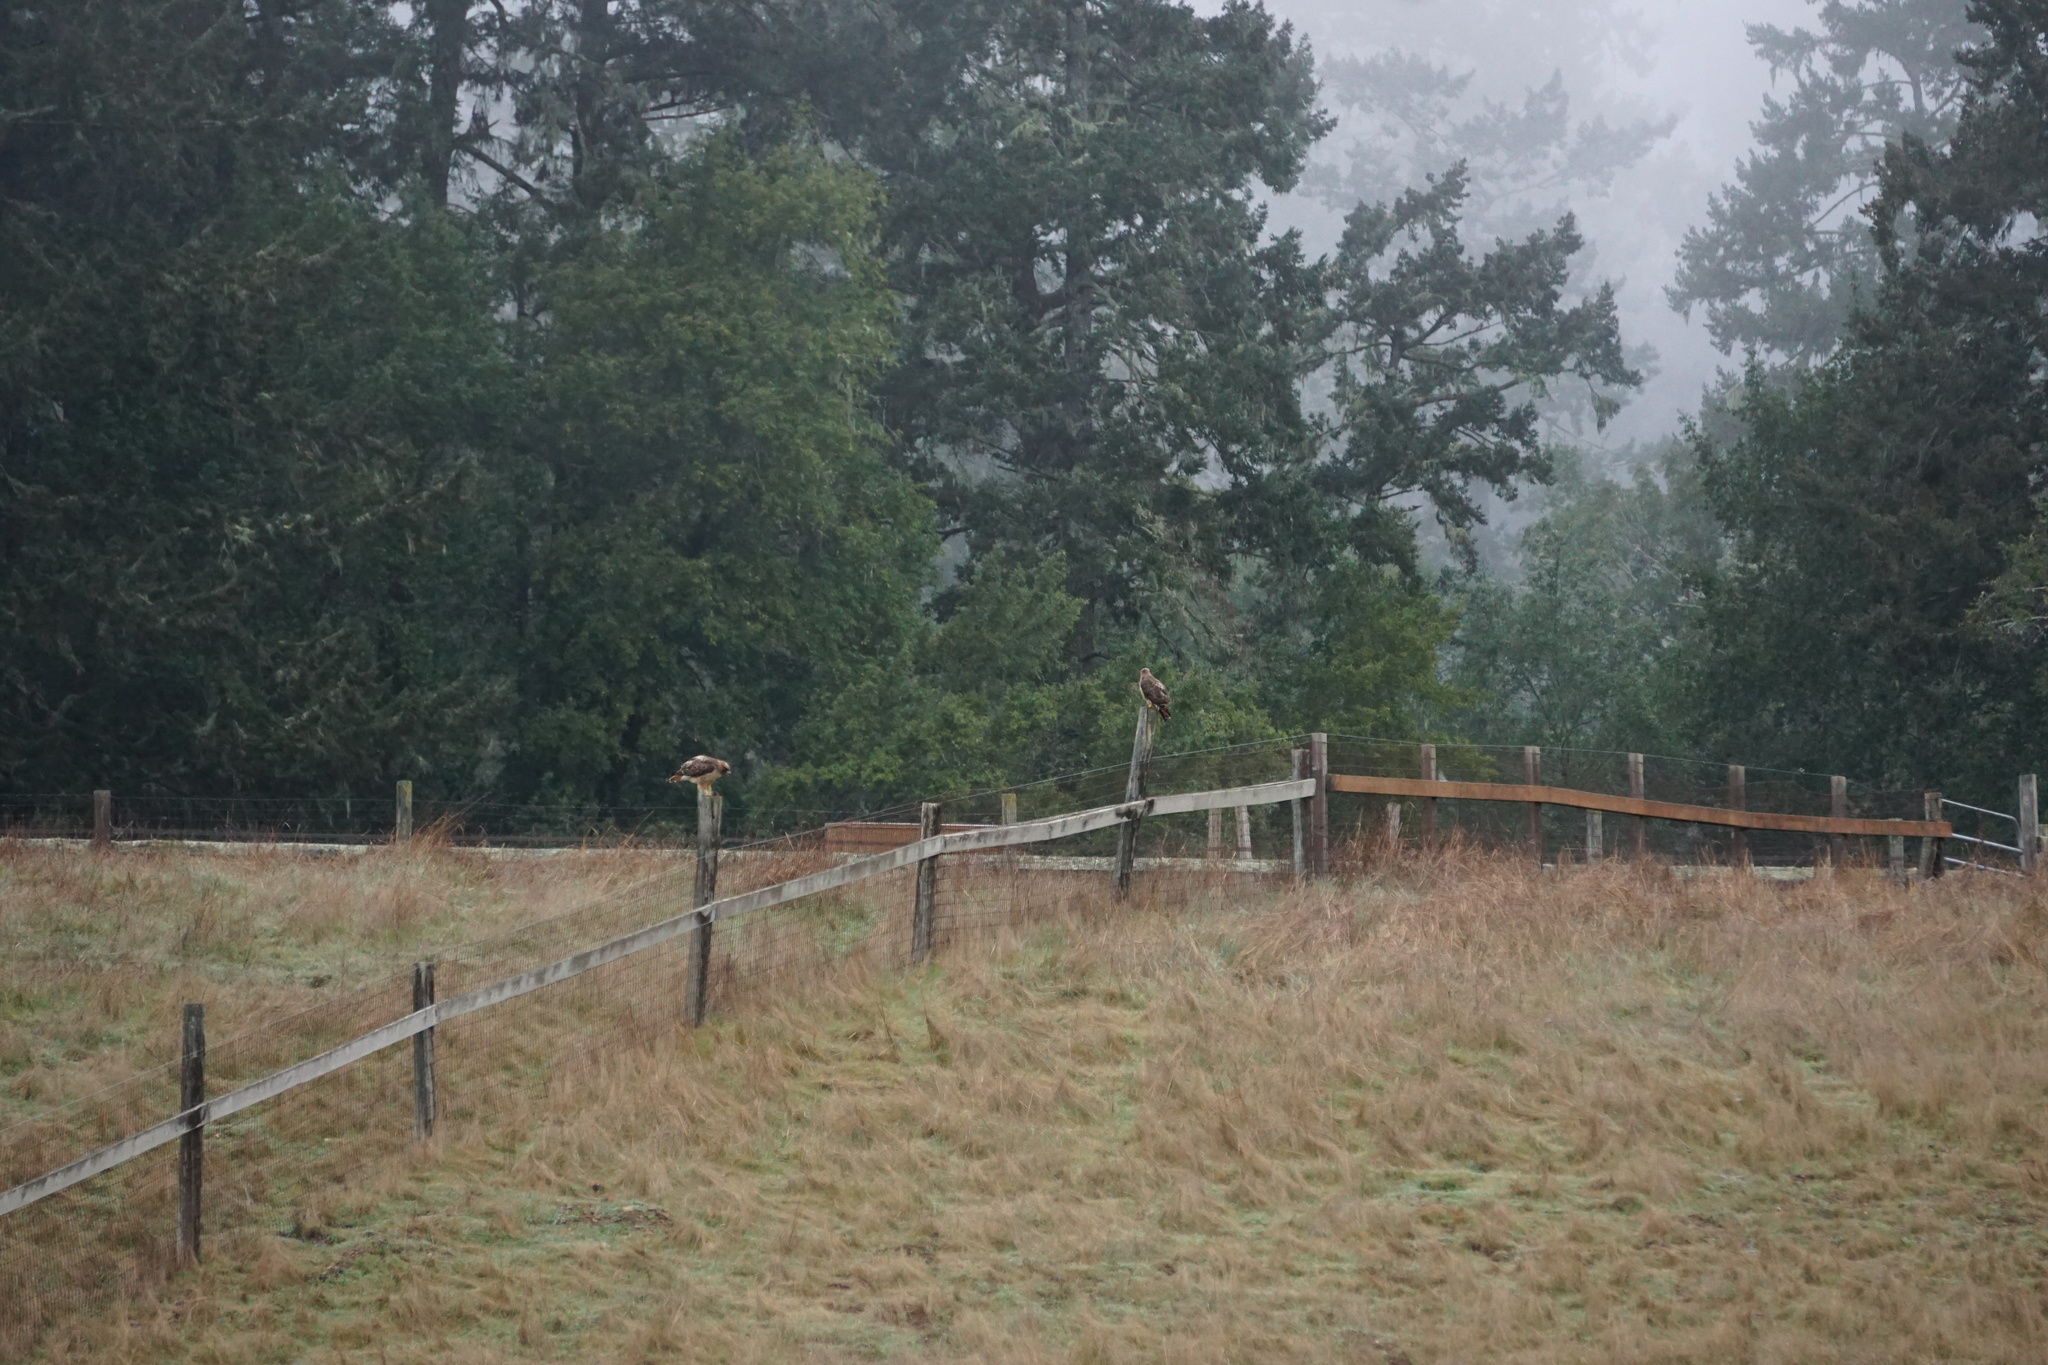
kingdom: Animalia
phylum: Chordata
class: Aves
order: Accipitriformes
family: Accipitridae
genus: Buteo
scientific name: Buteo jamaicensis
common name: Red-tailed hawk
